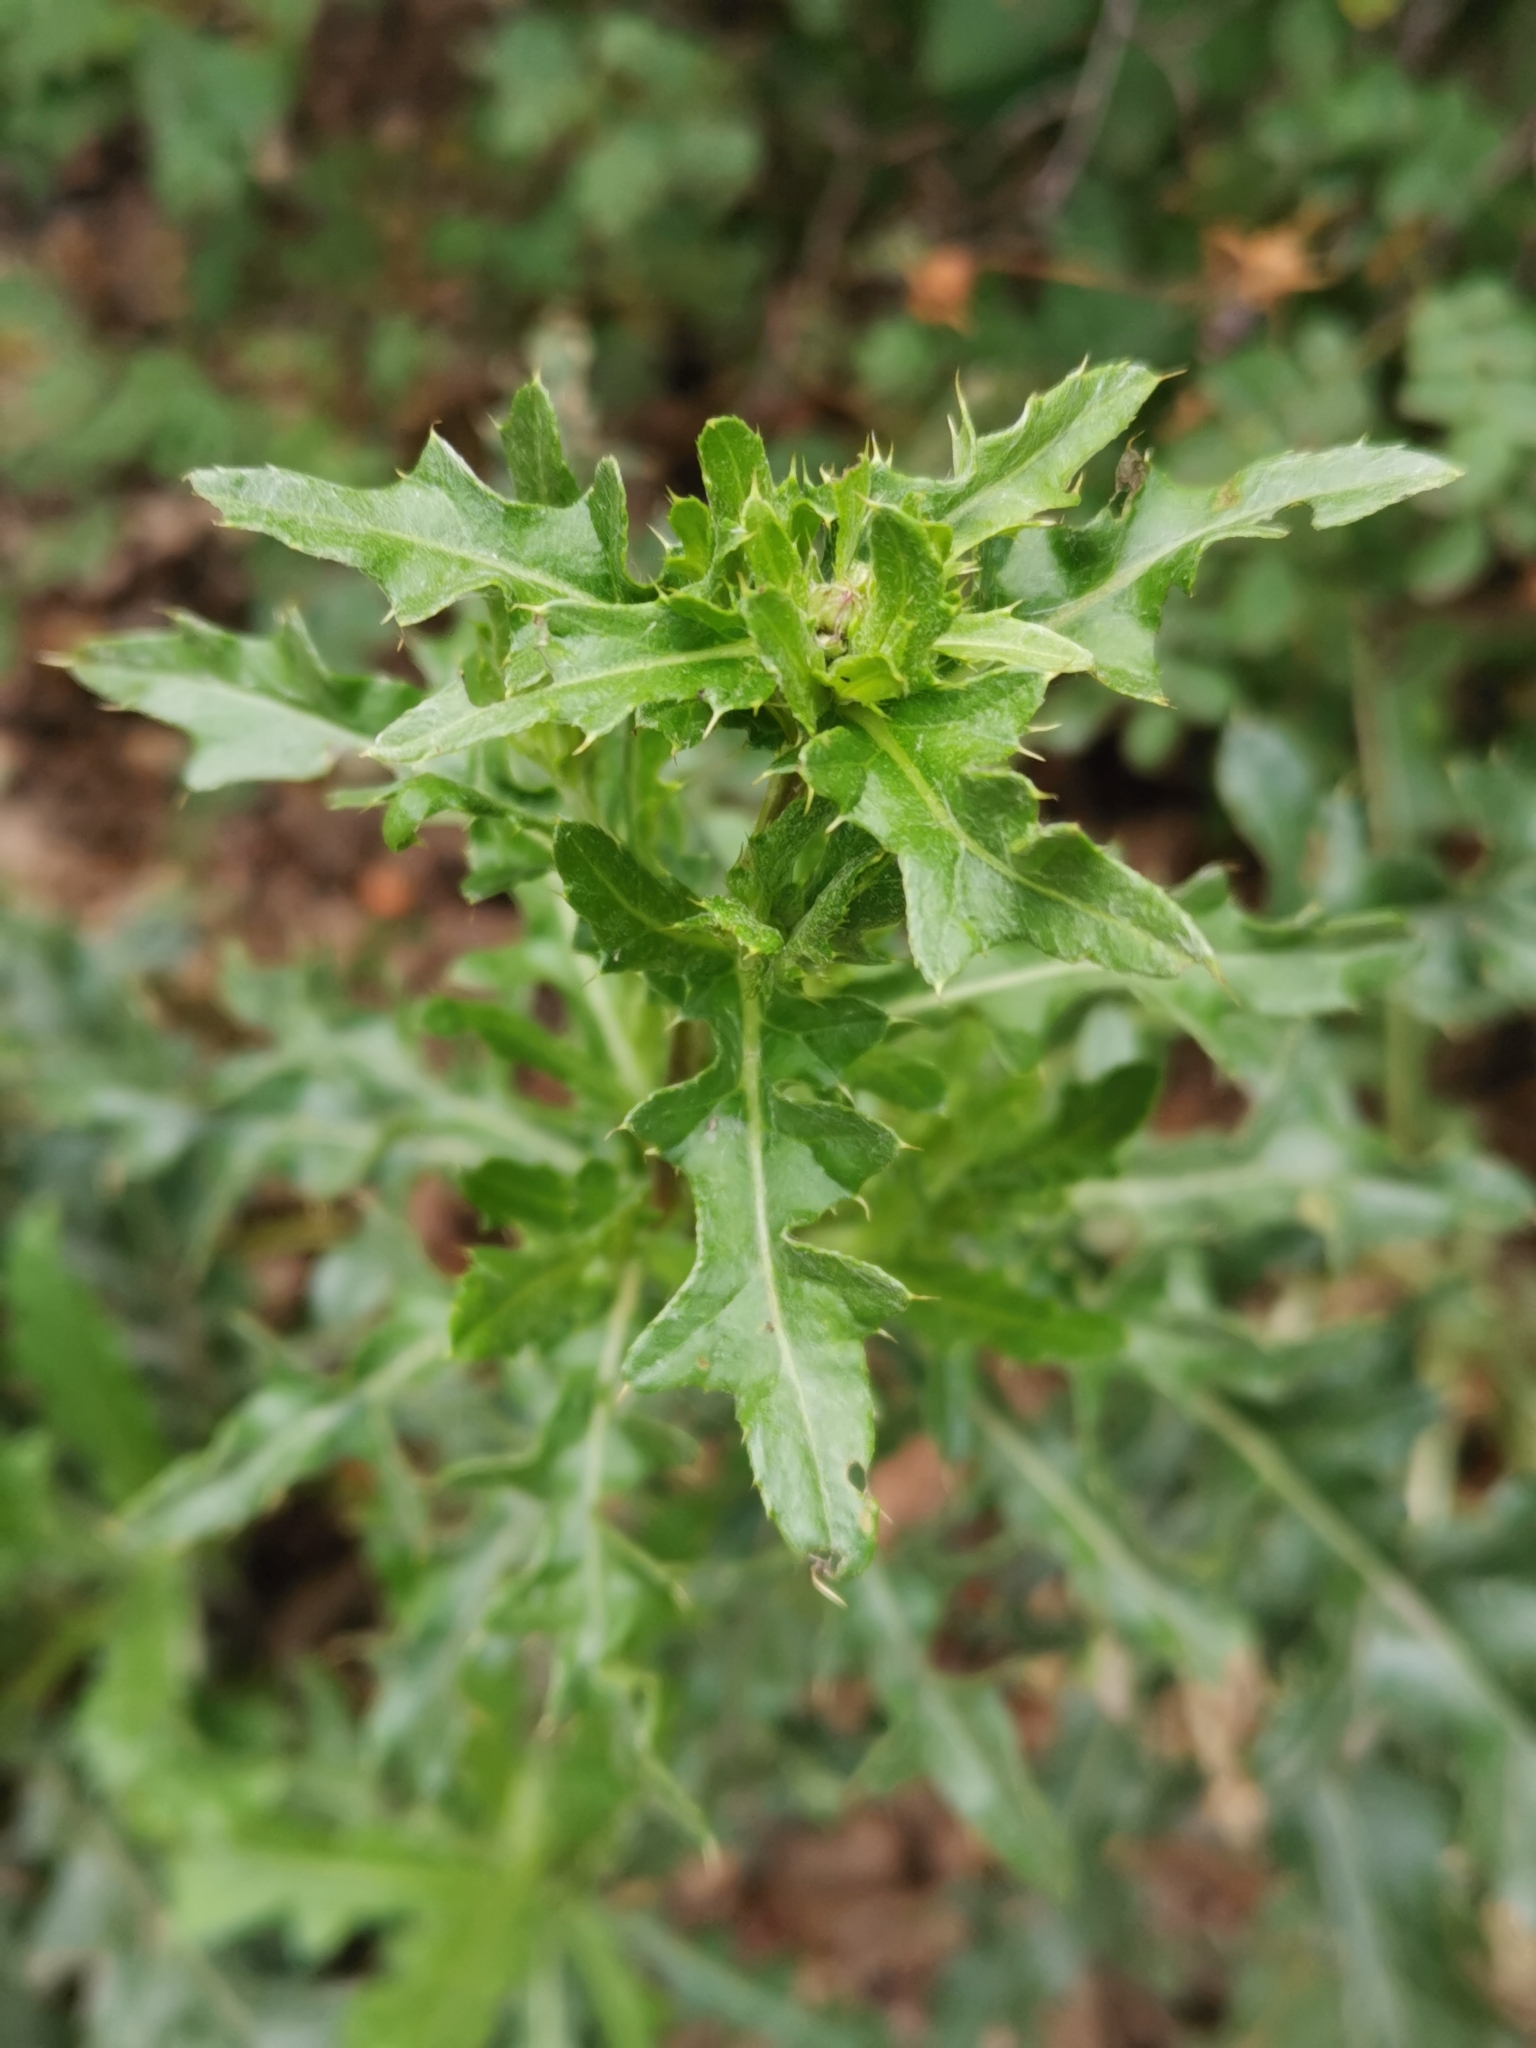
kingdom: Plantae
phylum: Tracheophyta
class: Magnoliopsida
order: Asterales
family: Asteraceae
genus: Cirsium
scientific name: Cirsium arvense
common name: Creeping thistle
